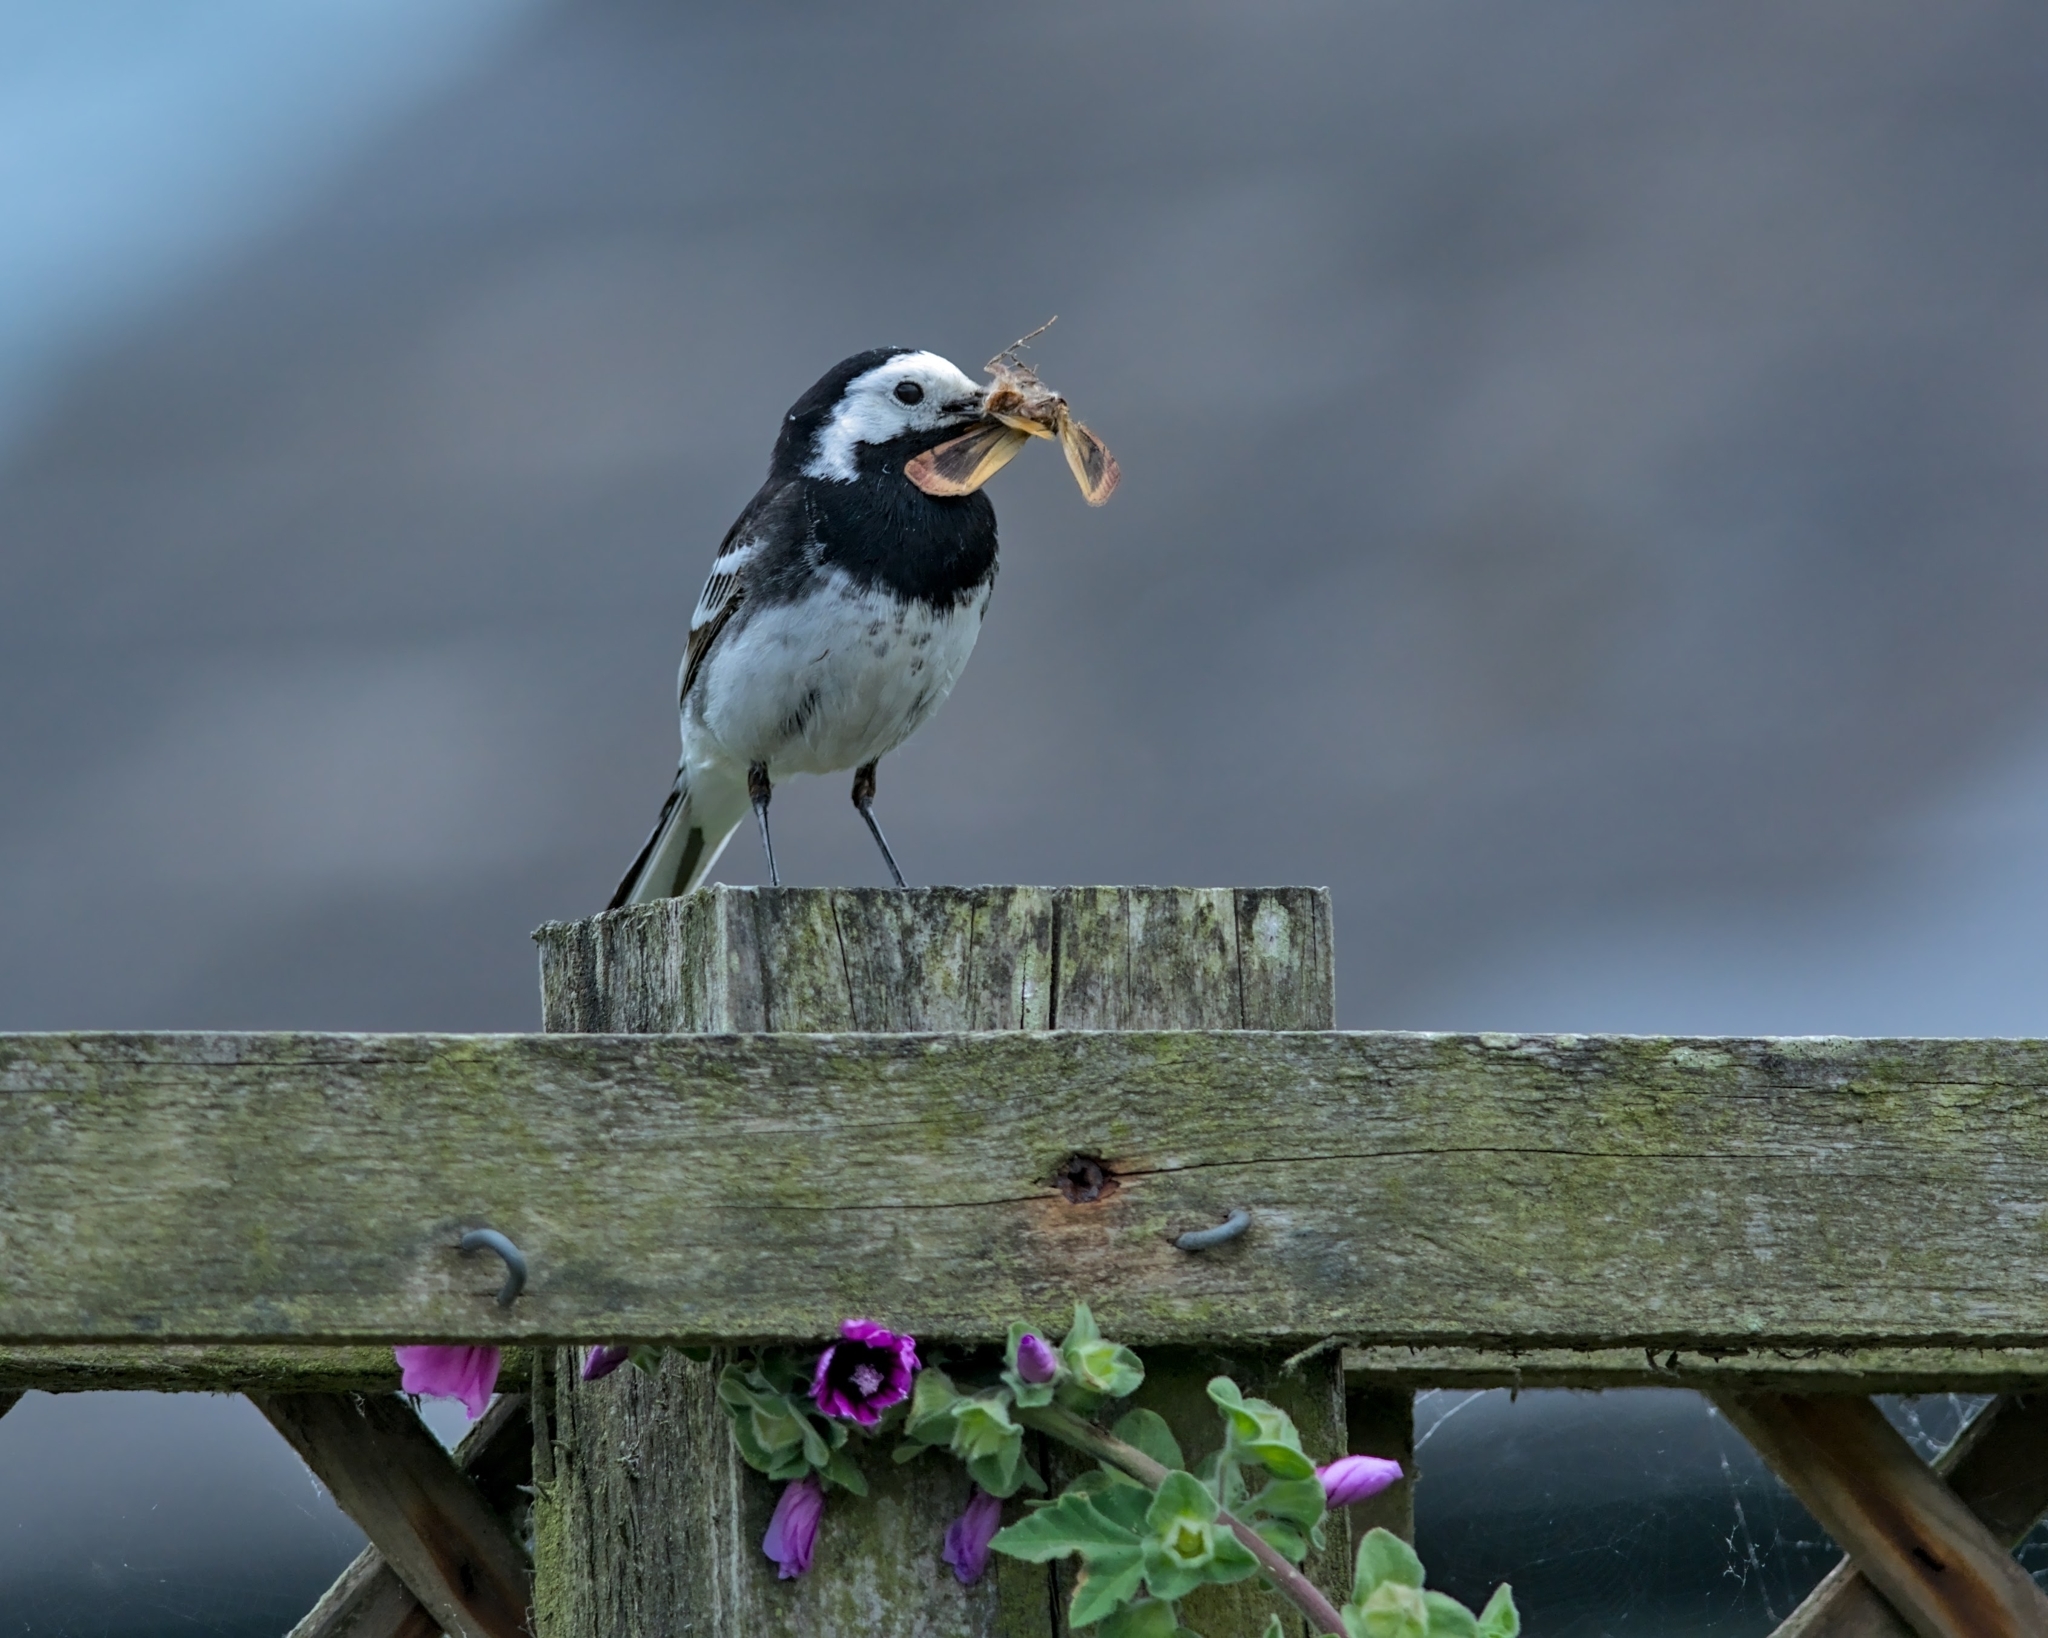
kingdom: Animalia
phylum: Chordata
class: Aves
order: Passeriformes
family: Motacillidae
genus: Motacilla
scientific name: Motacilla alba
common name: White wagtail
